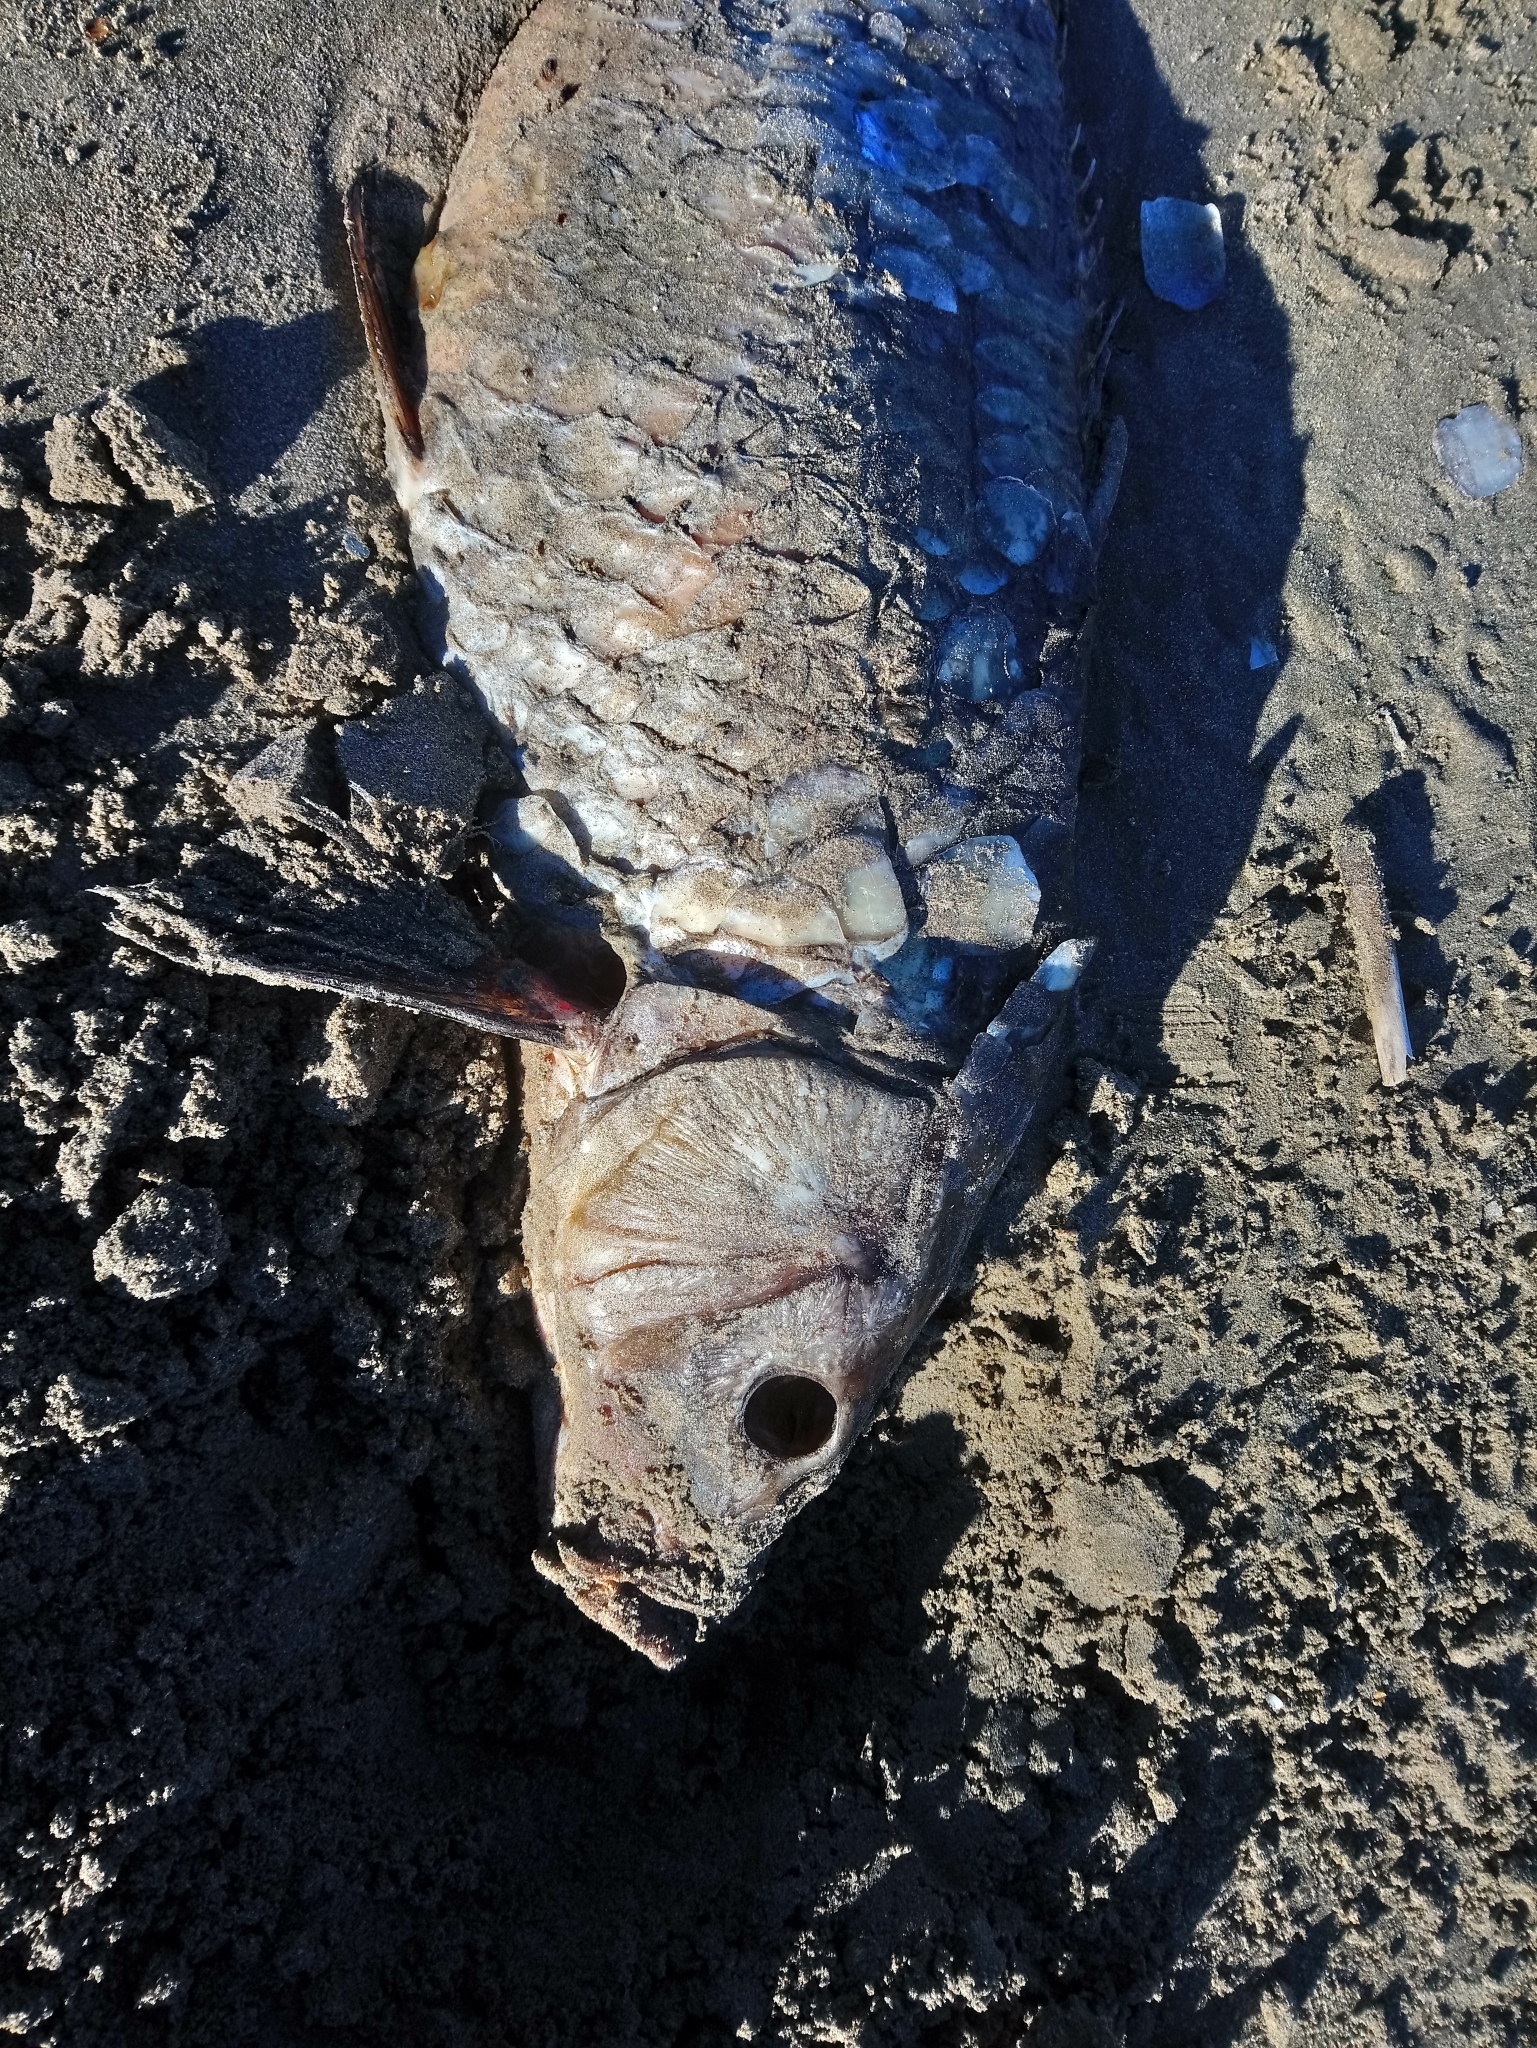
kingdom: Animalia
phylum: Chordata
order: Cypriniformes
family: Cyprinidae
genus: Cyprinus
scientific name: Cyprinus carpio
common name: Common carp
